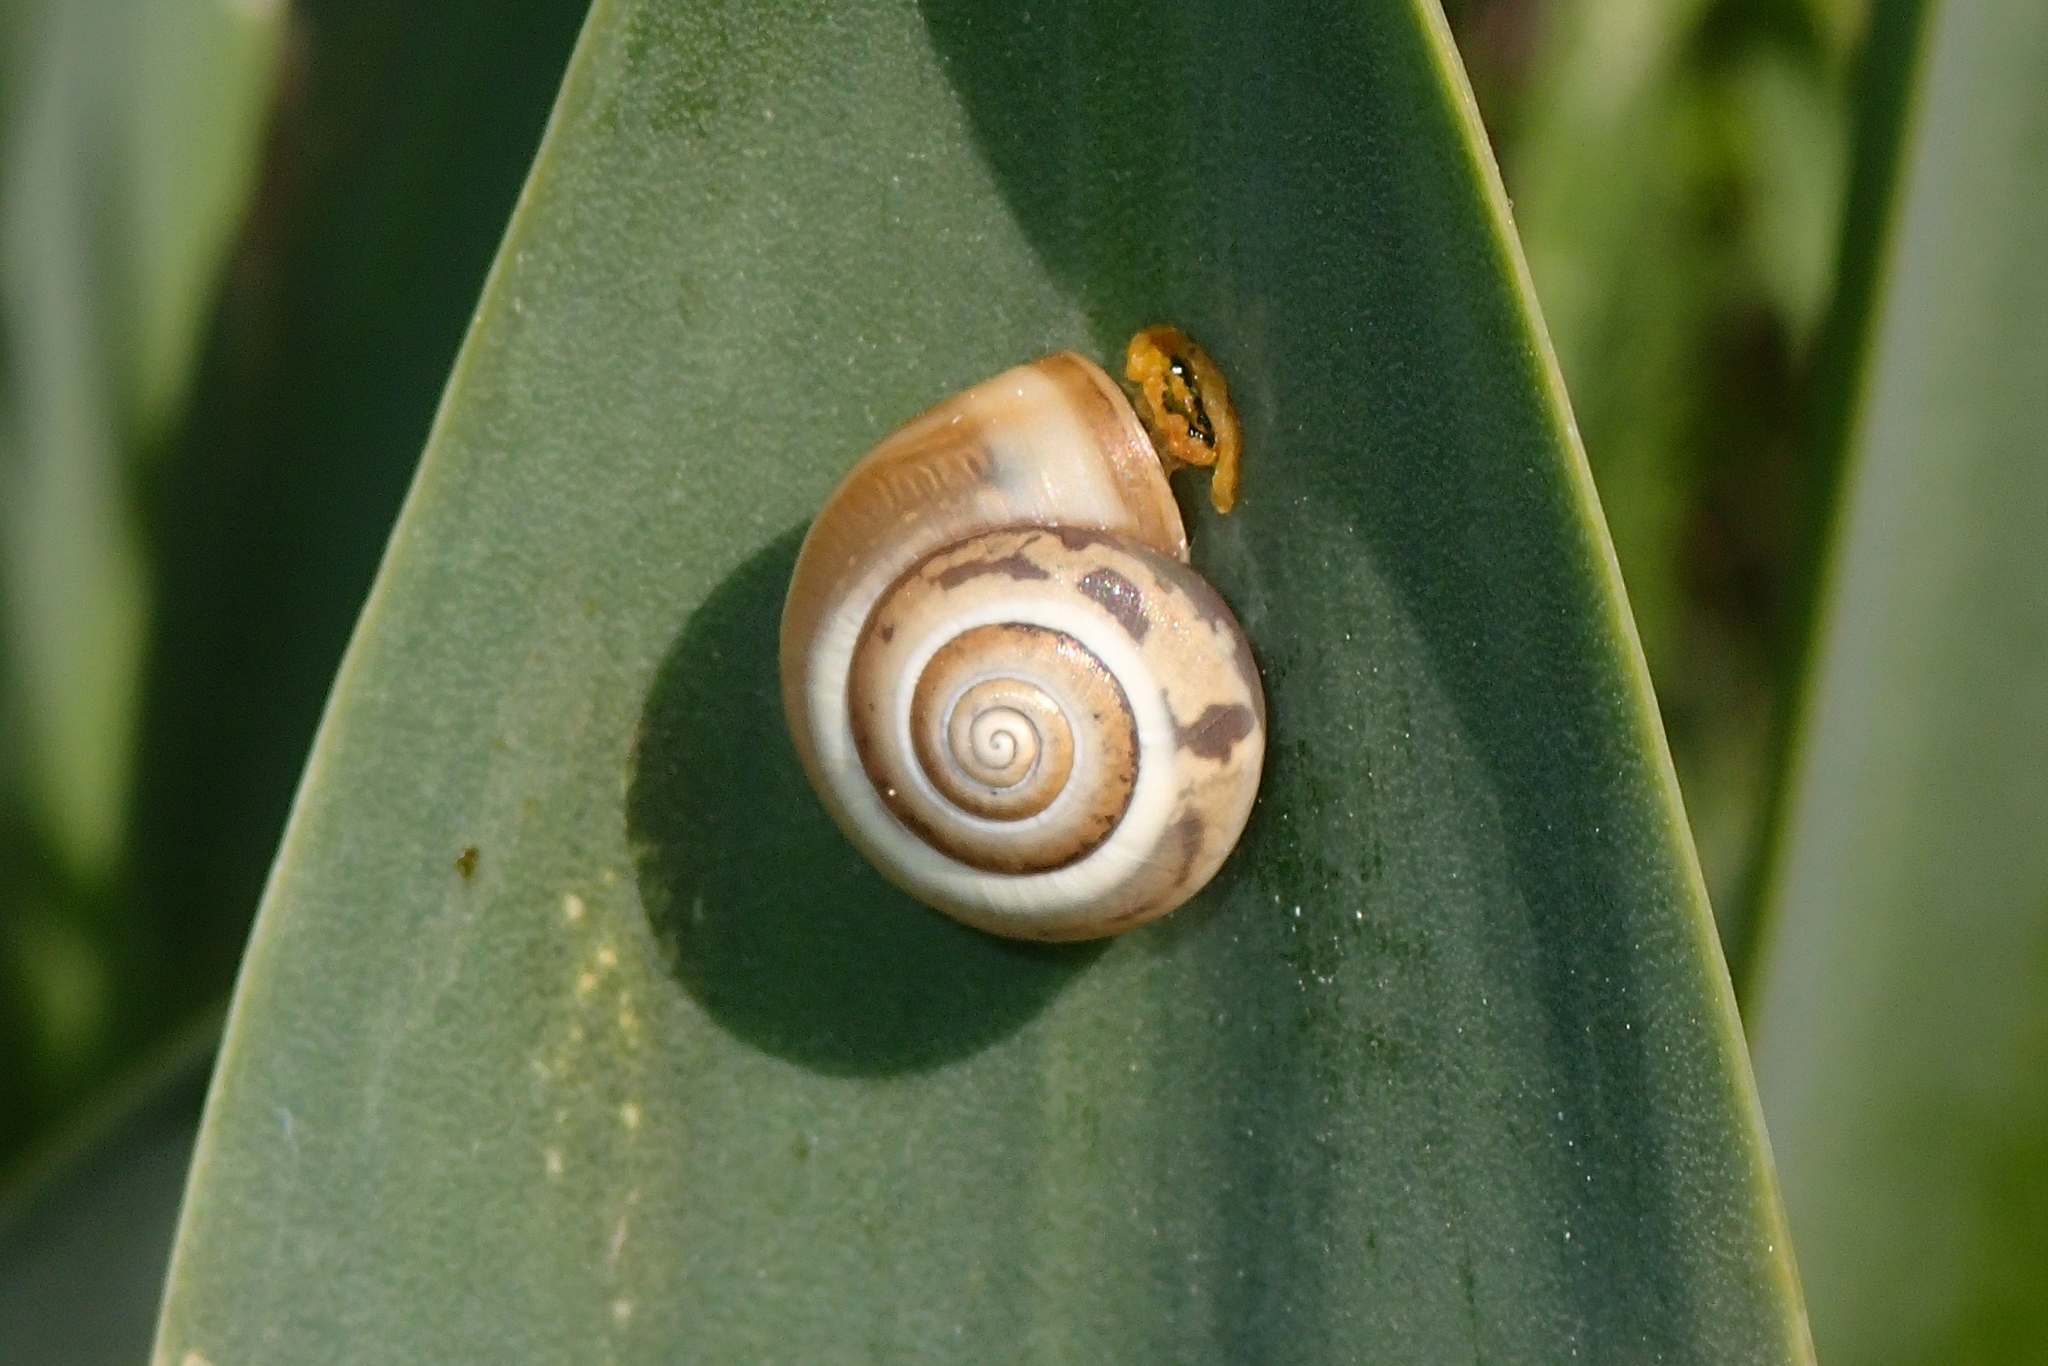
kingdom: Animalia
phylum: Mollusca
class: Gastropoda
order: Stylommatophora
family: Hygromiidae
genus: Monacha
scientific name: Monacha syriaca
